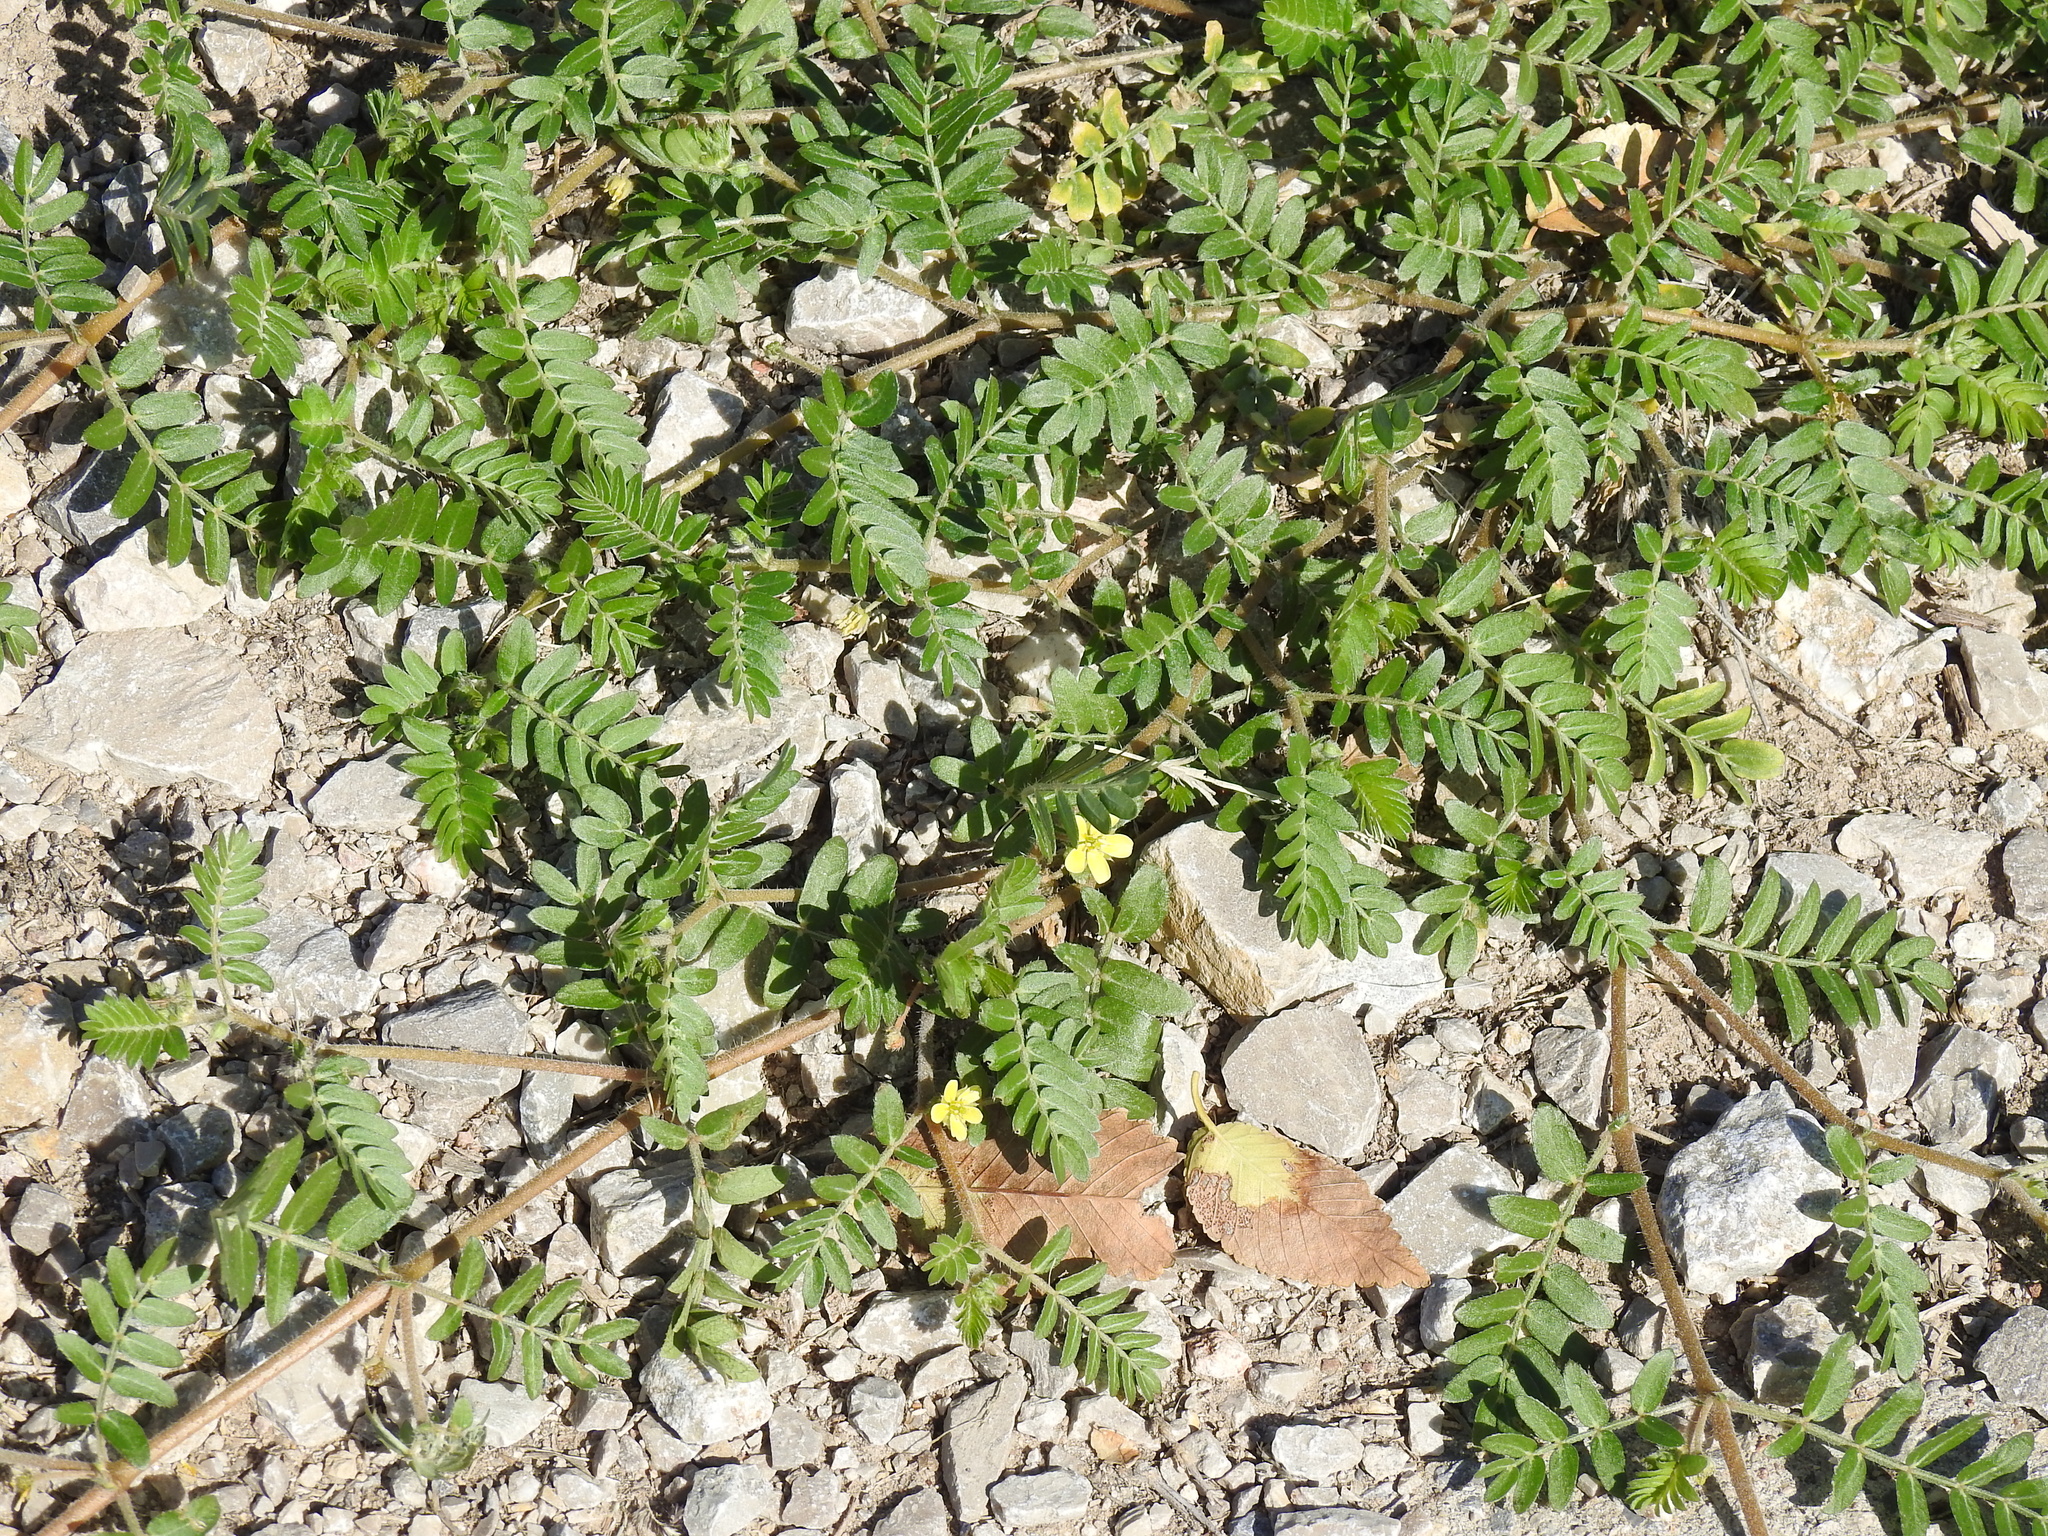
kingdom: Plantae
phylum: Tracheophyta
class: Magnoliopsida
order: Zygophyllales
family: Zygophyllaceae
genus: Tribulus
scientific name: Tribulus terrestris
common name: Puncturevine
